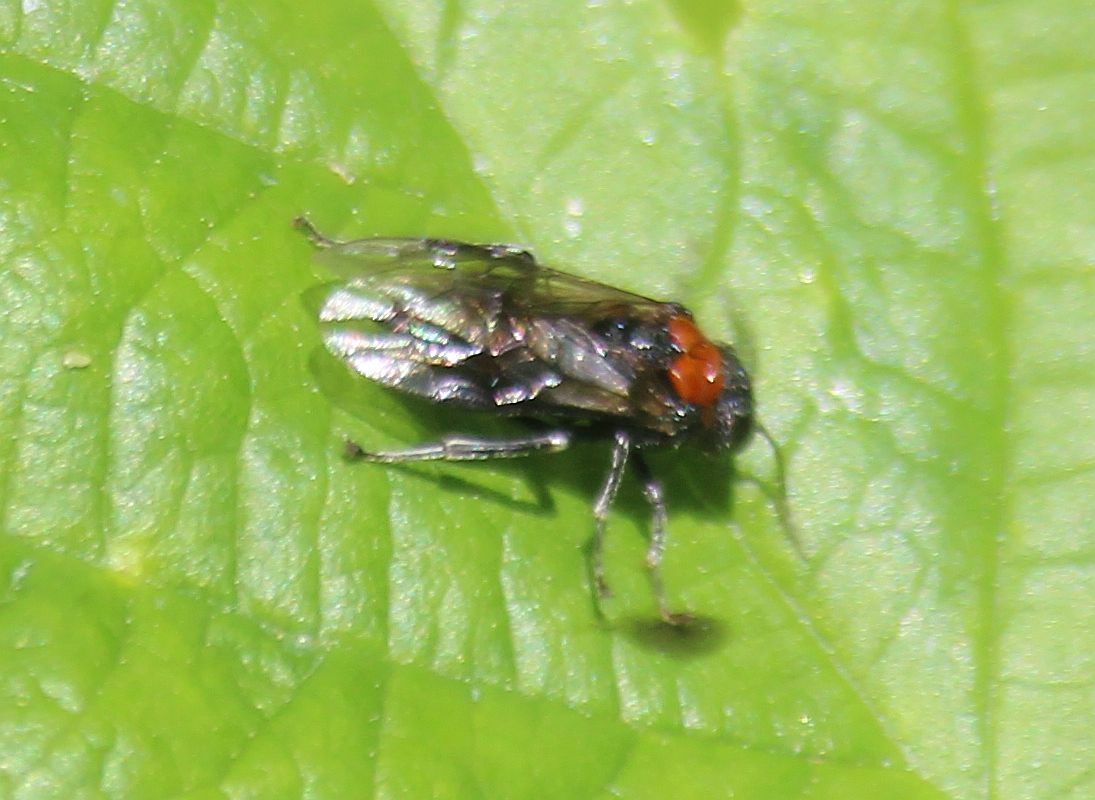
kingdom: Animalia
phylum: Arthropoda
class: Insecta
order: Hymenoptera
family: Tenthredinidae
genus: Eriocampa
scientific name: Eriocampa ovata
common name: Alder wooly sawfly
